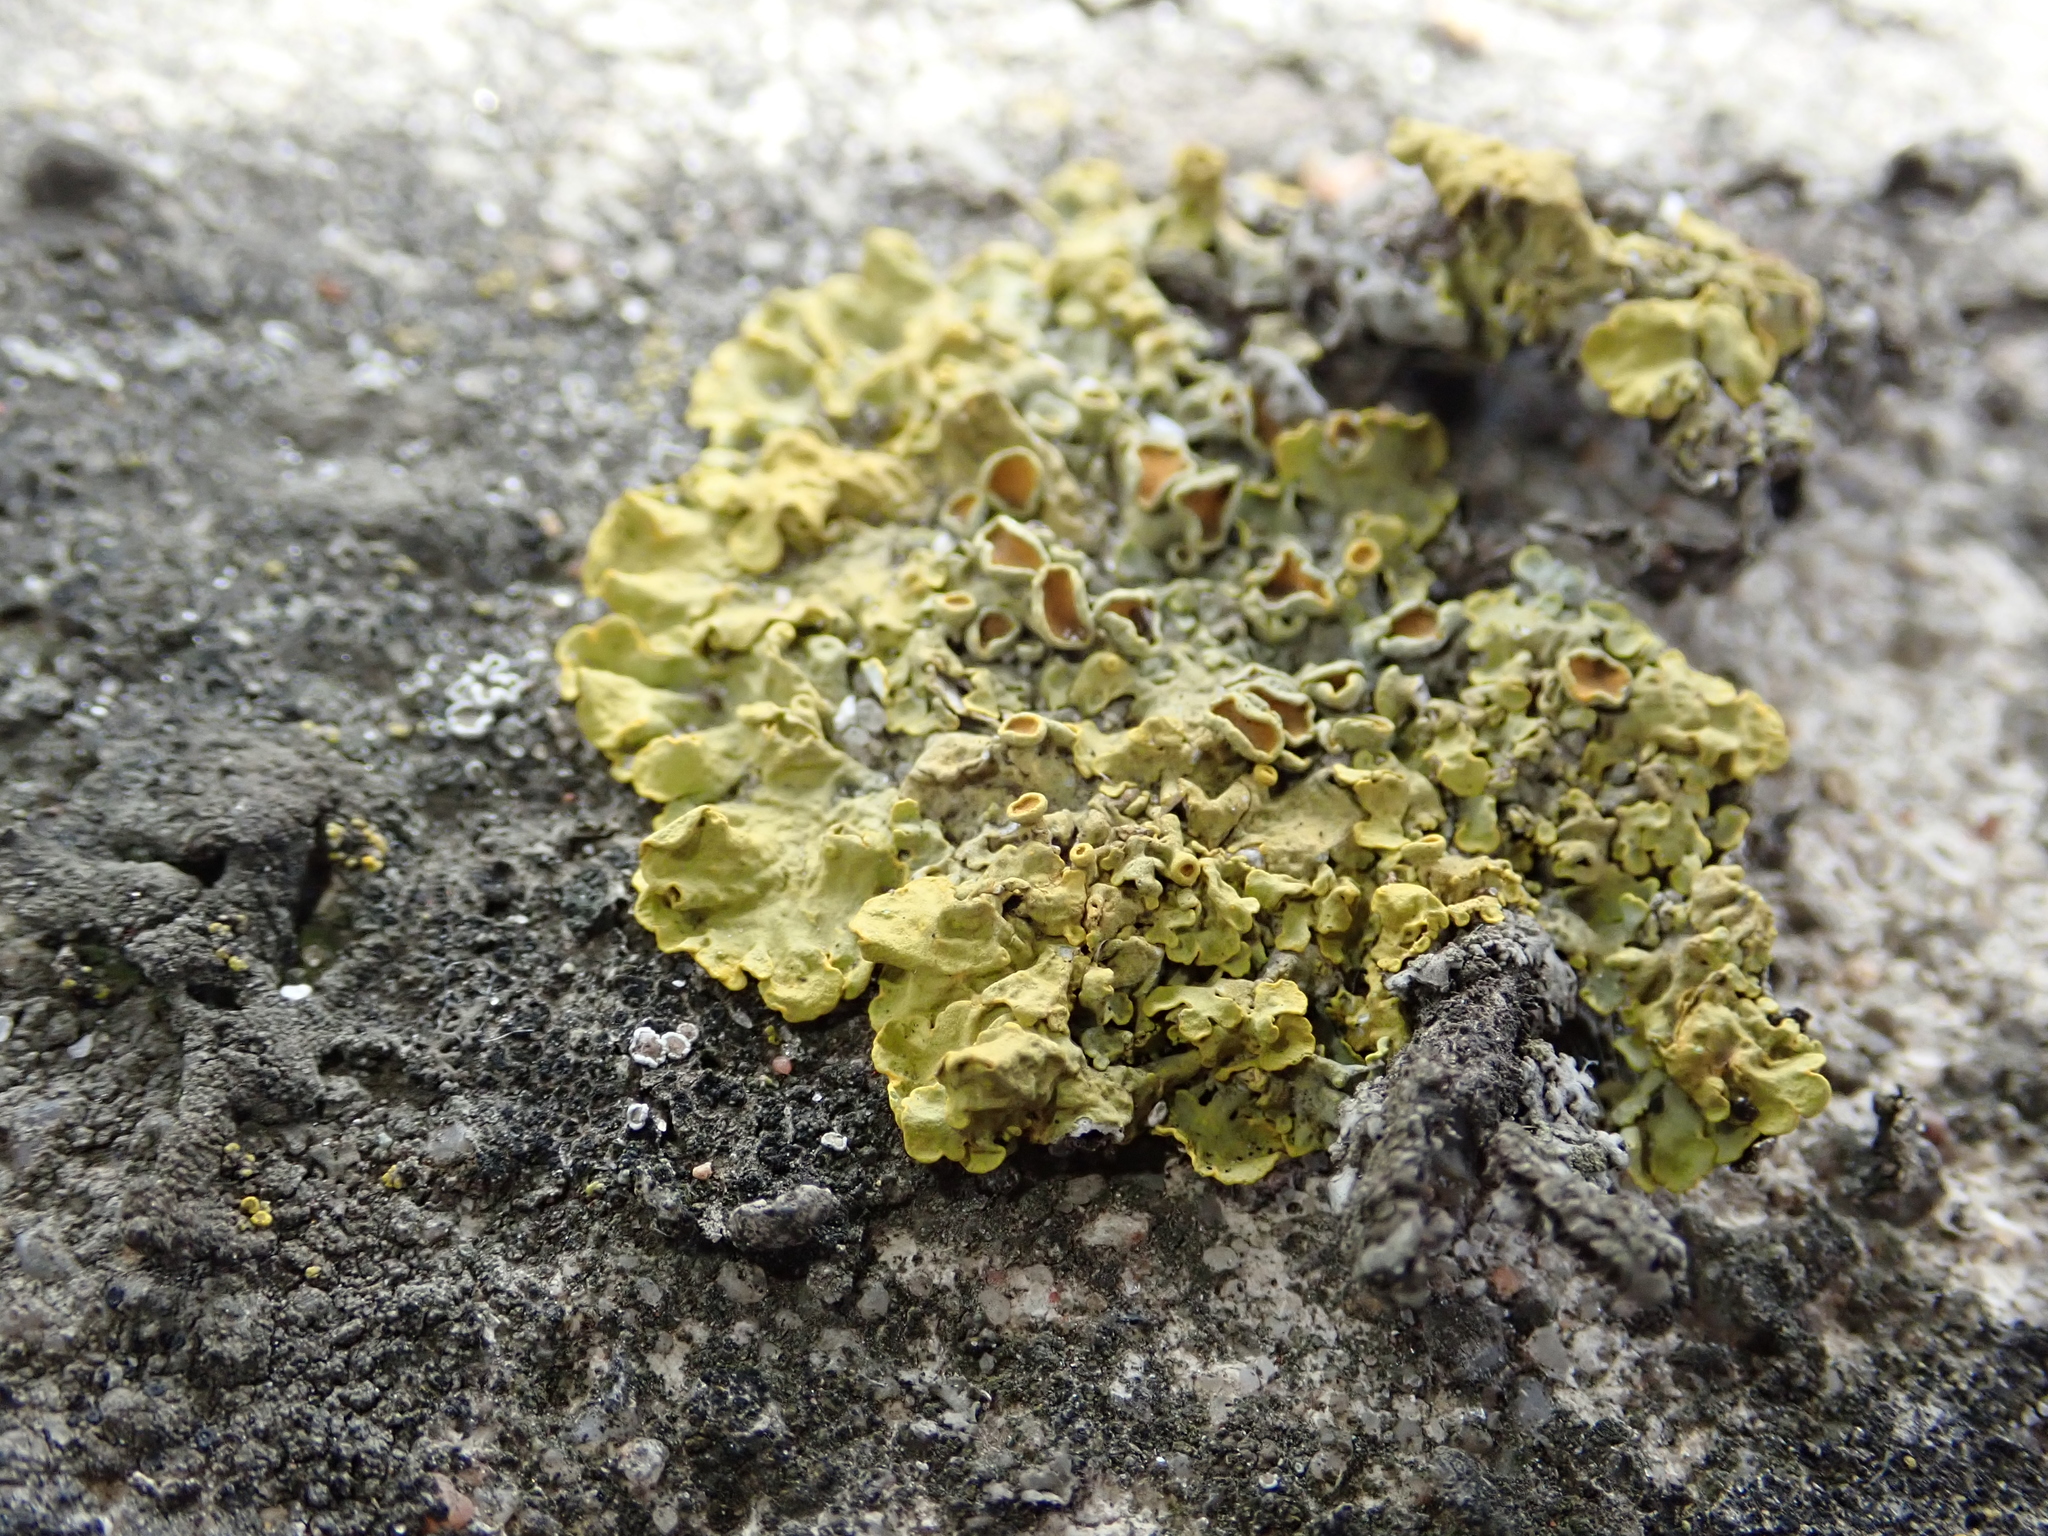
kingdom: Fungi
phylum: Ascomycota
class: Lecanoromycetes
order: Teloschistales
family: Teloschistaceae
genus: Xanthoria
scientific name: Xanthoria parietina
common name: Common orange lichen
